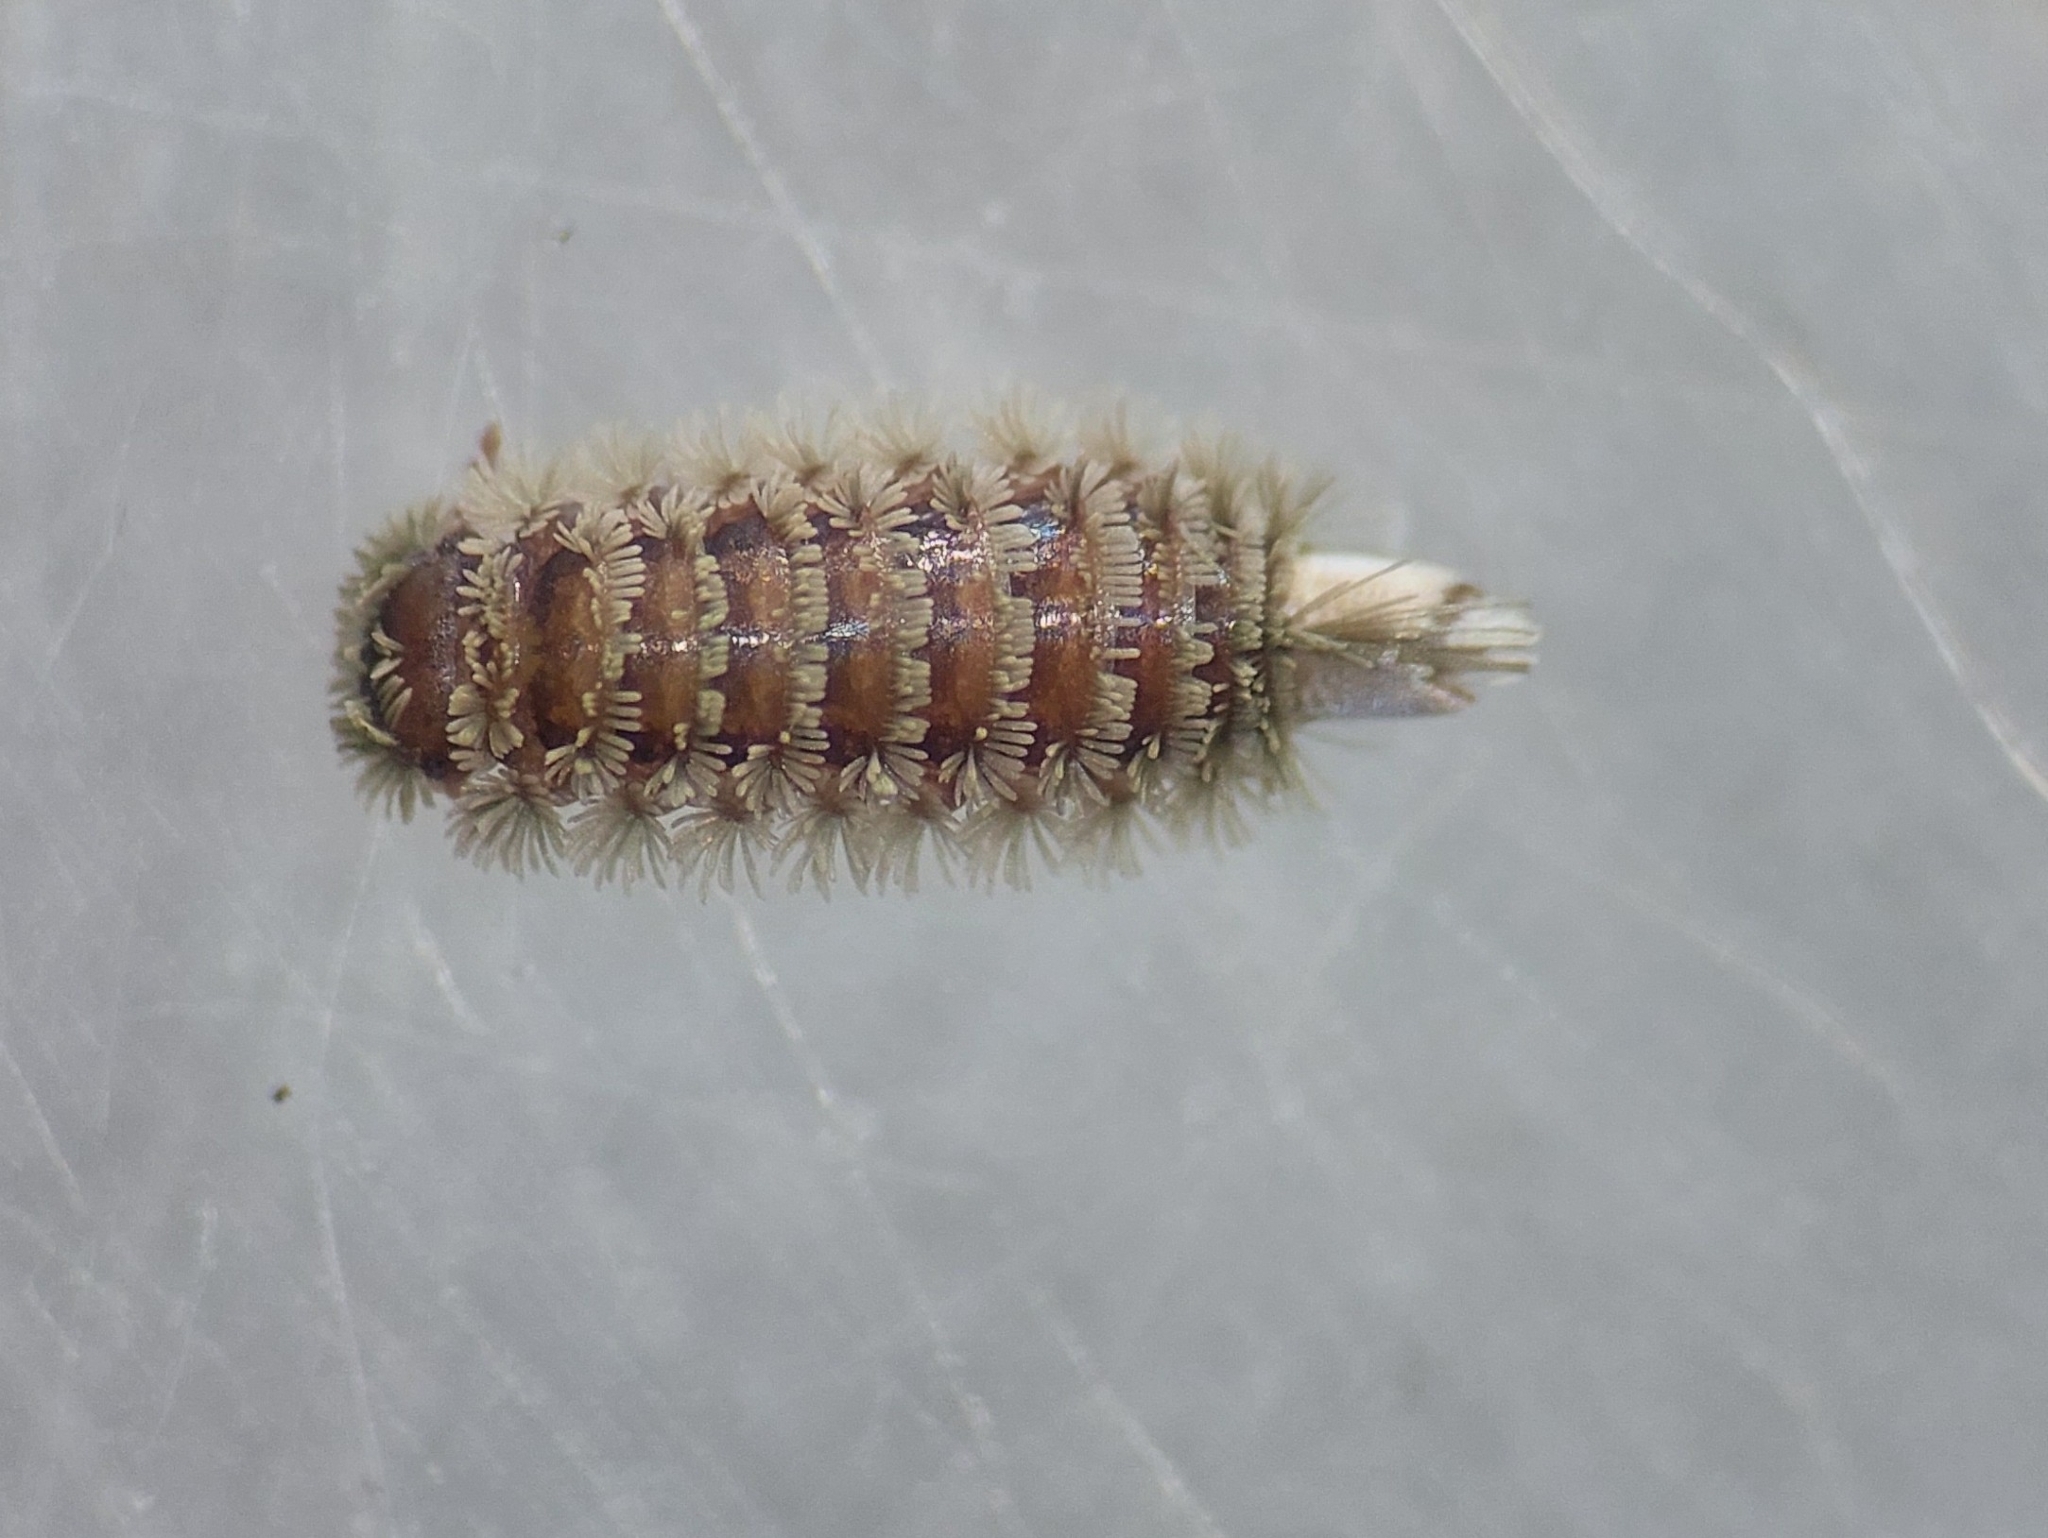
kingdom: Animalia
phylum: Arthropoda
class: Diplopoda
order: Polyxenida
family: Polyxenidae
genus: Polyxenus
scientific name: Polyxenus lagurus
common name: Bristly millipede
